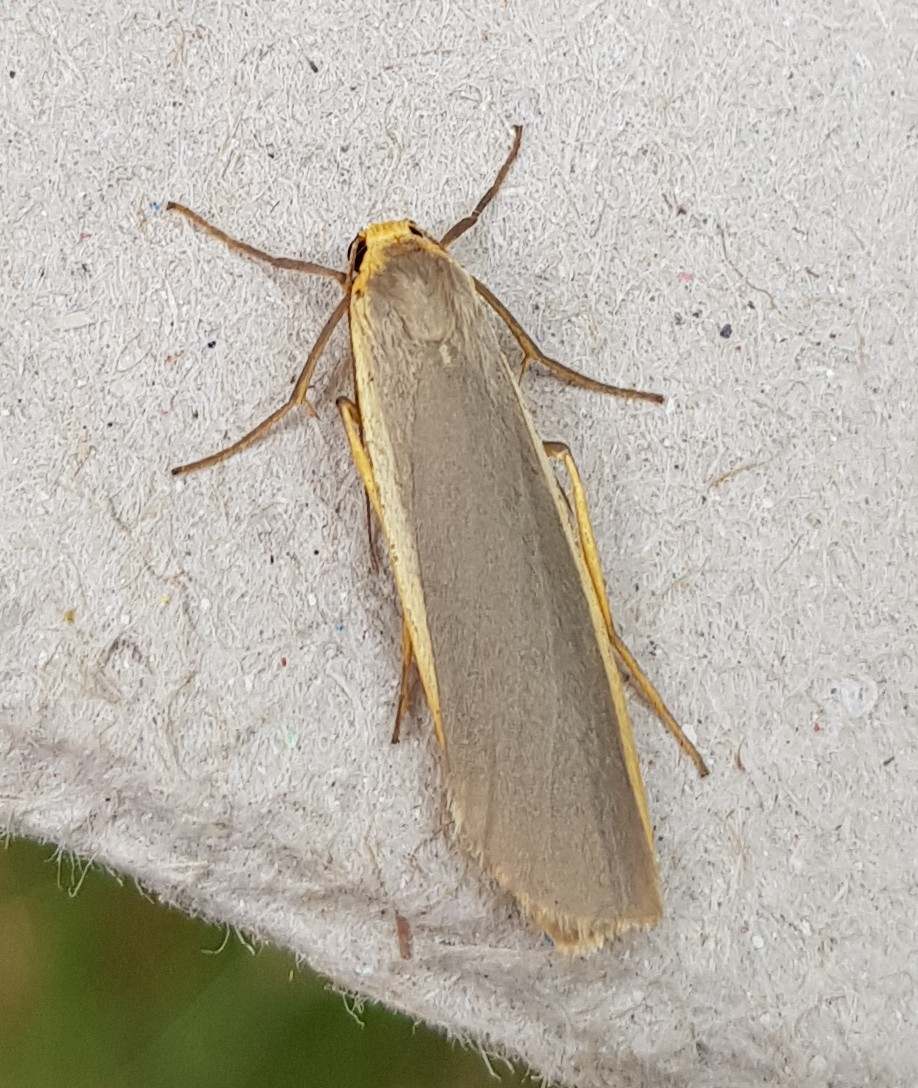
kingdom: Animalia
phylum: Arthropoda
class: Insecta
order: Lepidoptera
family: Erebidae
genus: Nyea
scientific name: Nyea lurideola
